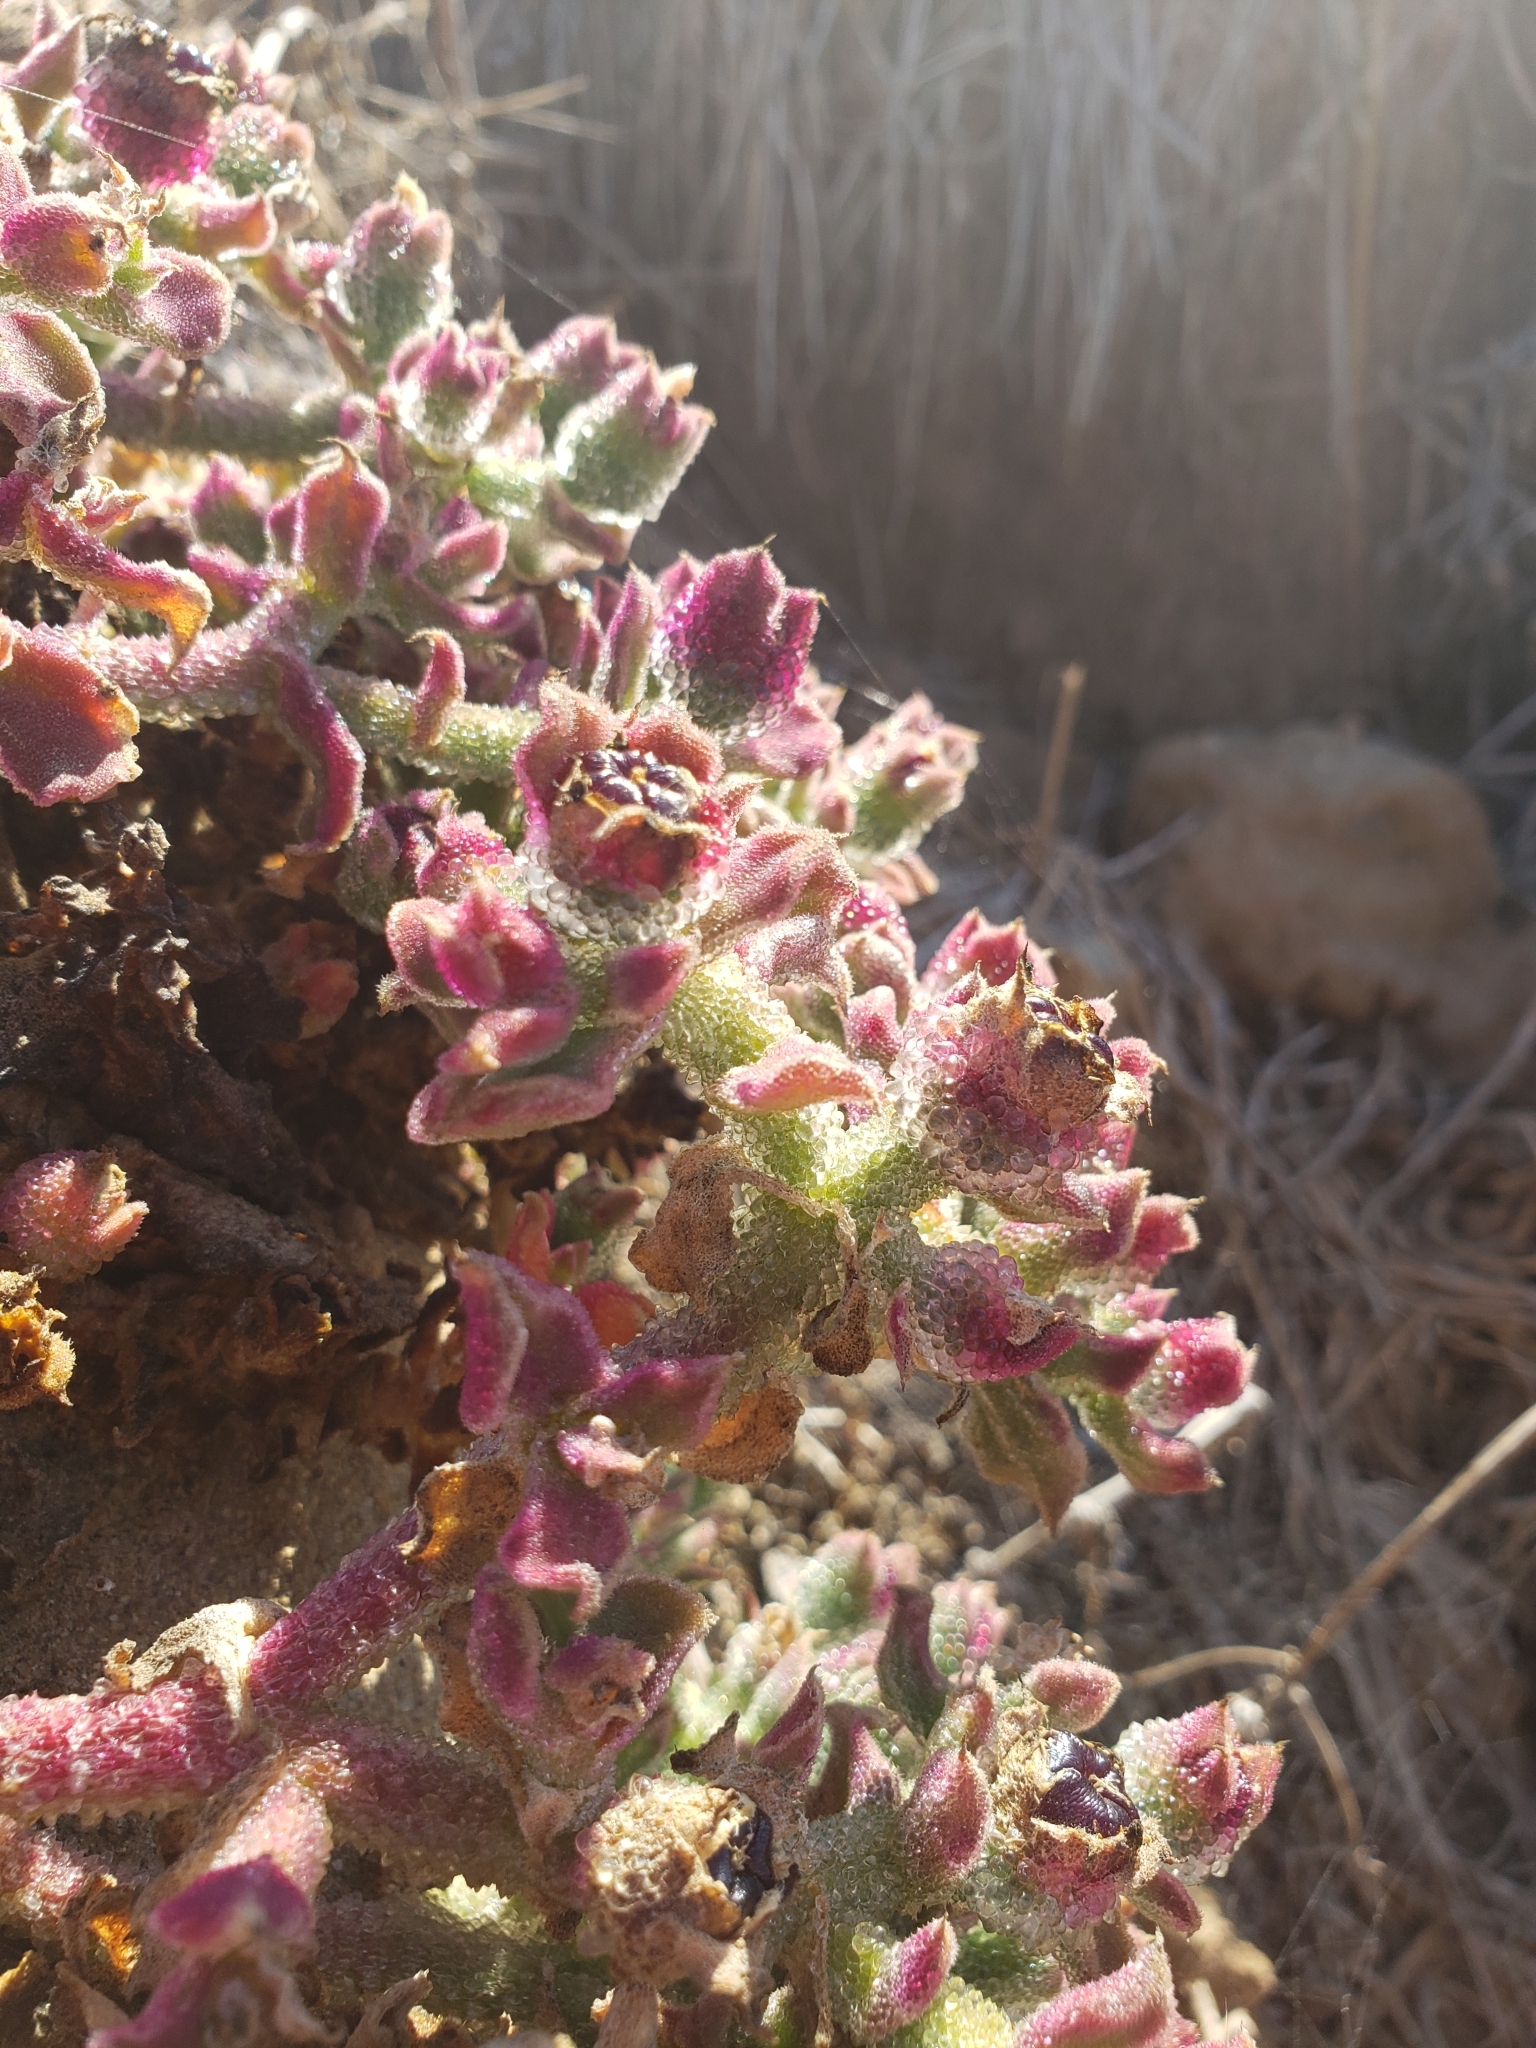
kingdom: Plantae
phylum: Tracheophyta
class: Magnoliopsida
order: Caryophyllales
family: Aizoaceae
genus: Mesembryanthemum
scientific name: Mesembryanthemum crystallinum
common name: Common iceplant
